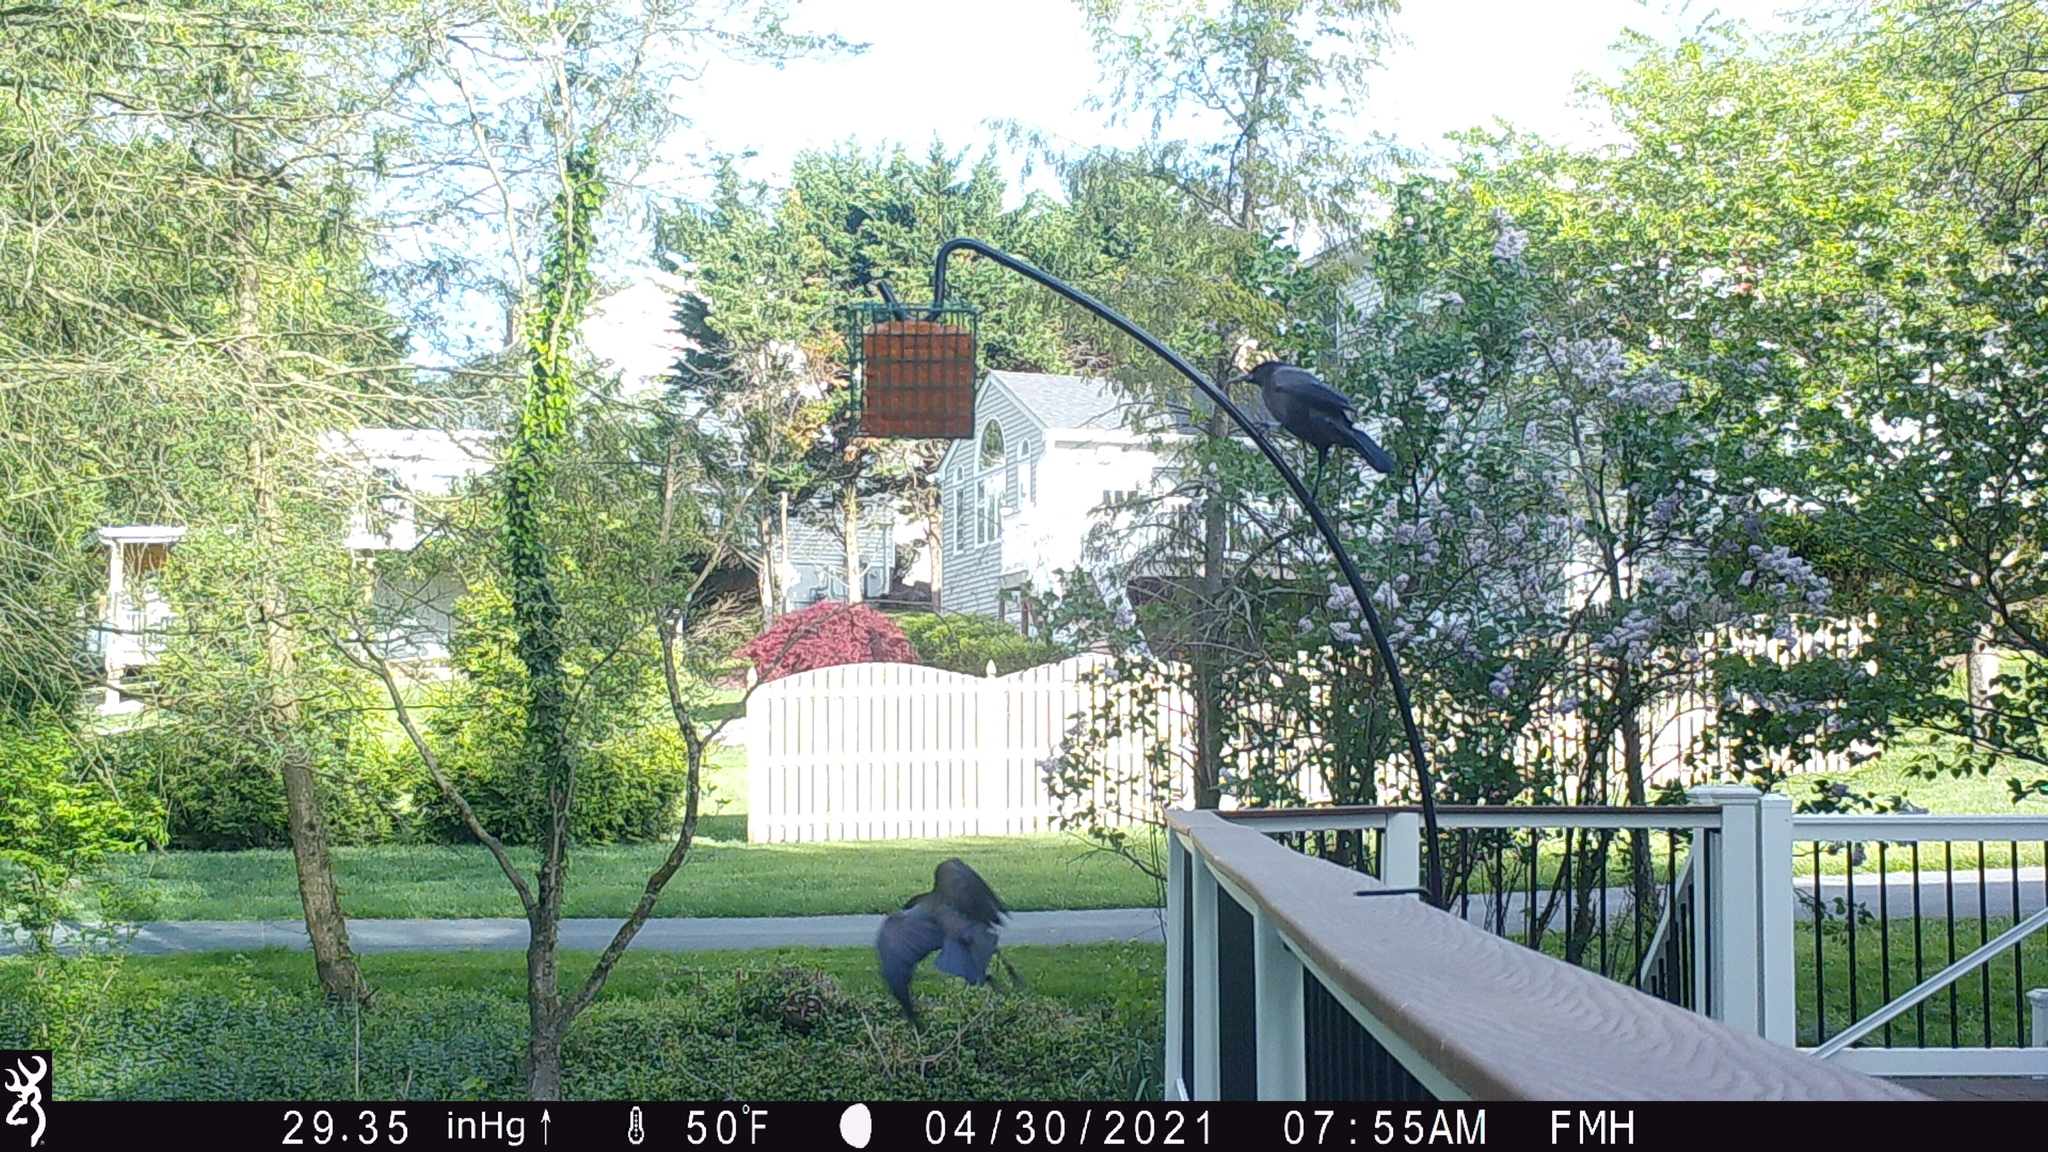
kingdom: Animalia
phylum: Chordata
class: Aves
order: Passeriformes
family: Icteridae
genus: Quiscalus
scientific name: Quiscalus quiscula
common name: Common grackle
